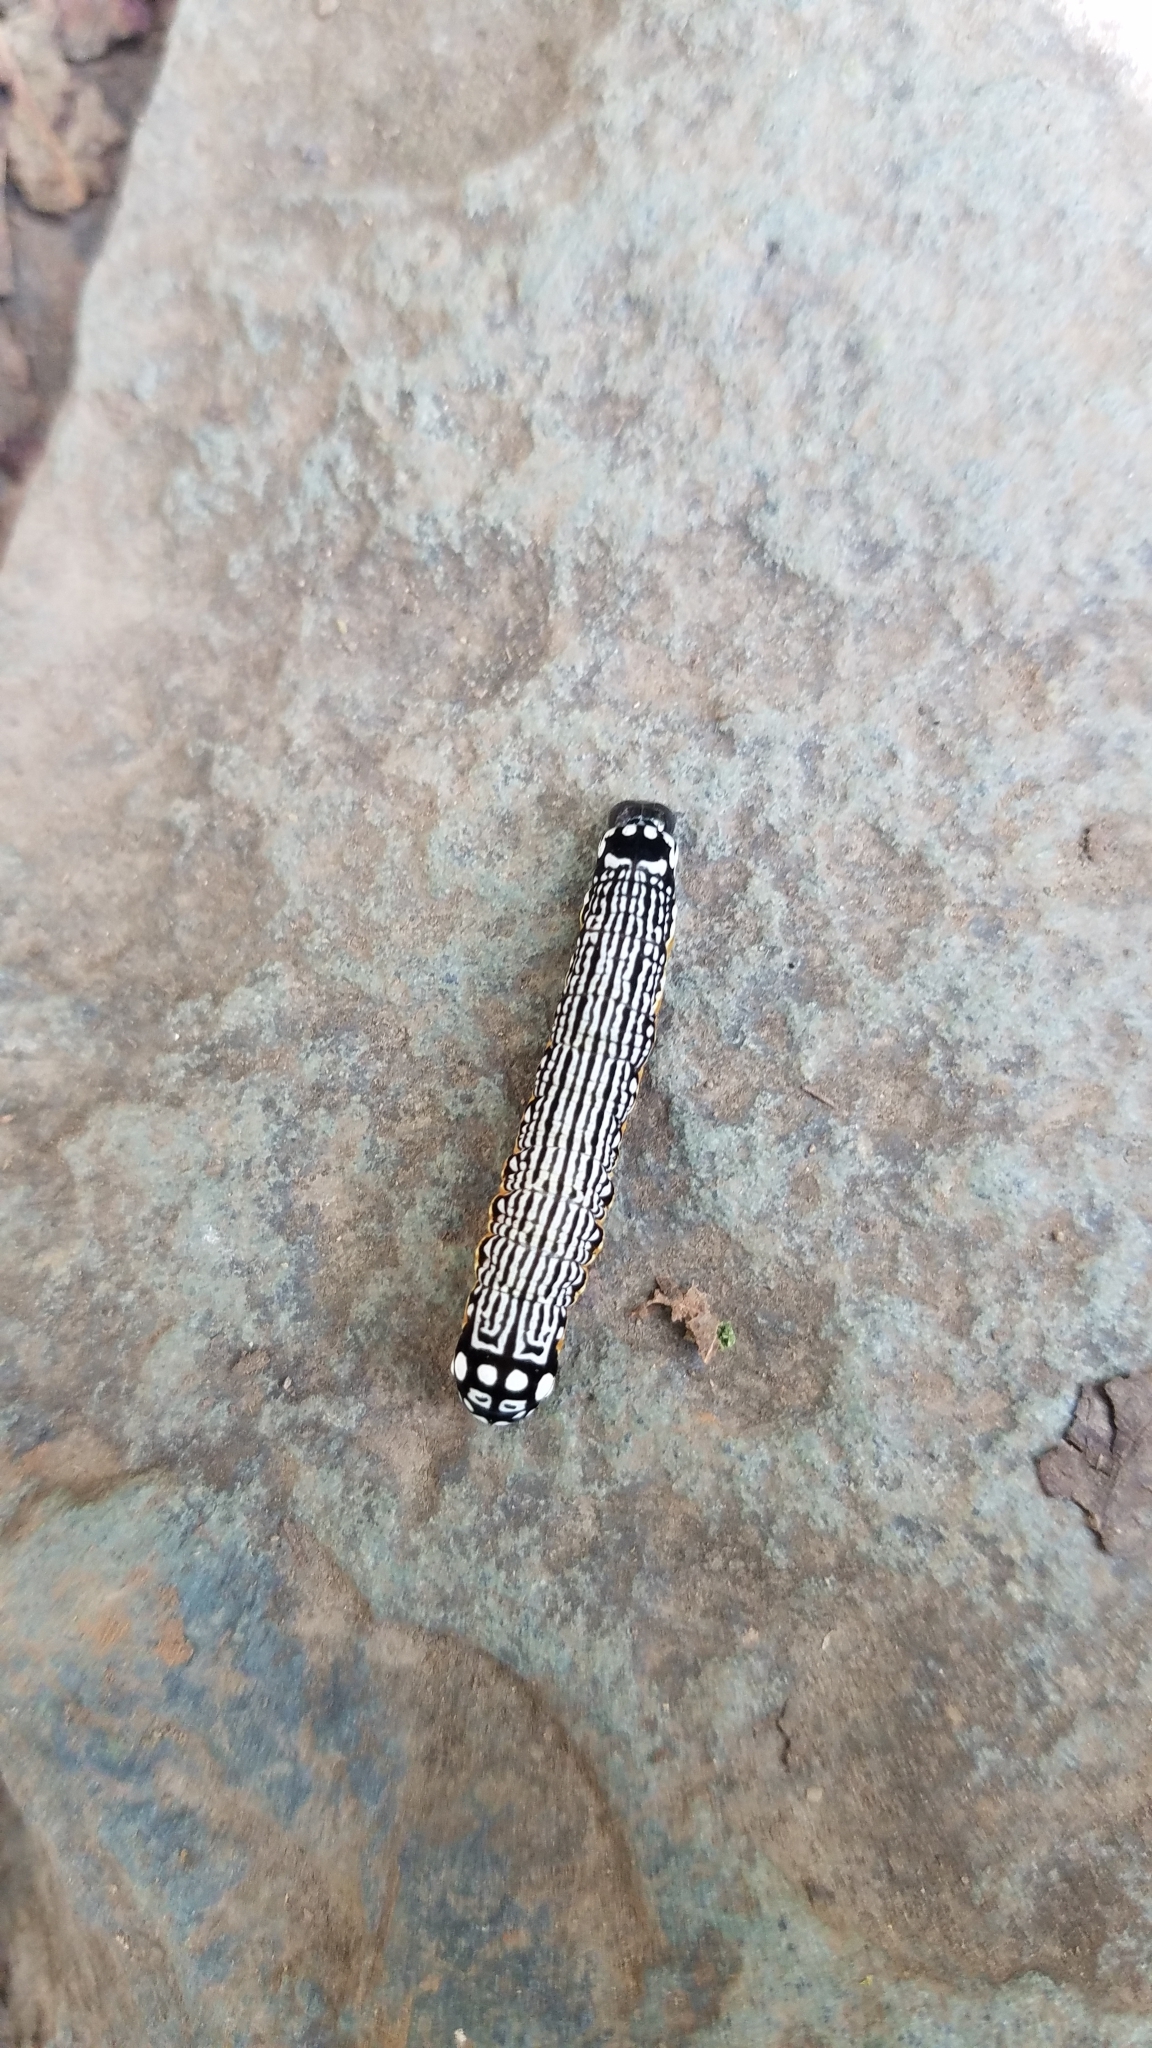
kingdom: Animalia
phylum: Arthropoda
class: Insecta
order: Lepidoptera
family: Noctuidae
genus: Phosphila
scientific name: Phosphila turbulenta
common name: Turbulent phosphila moth
